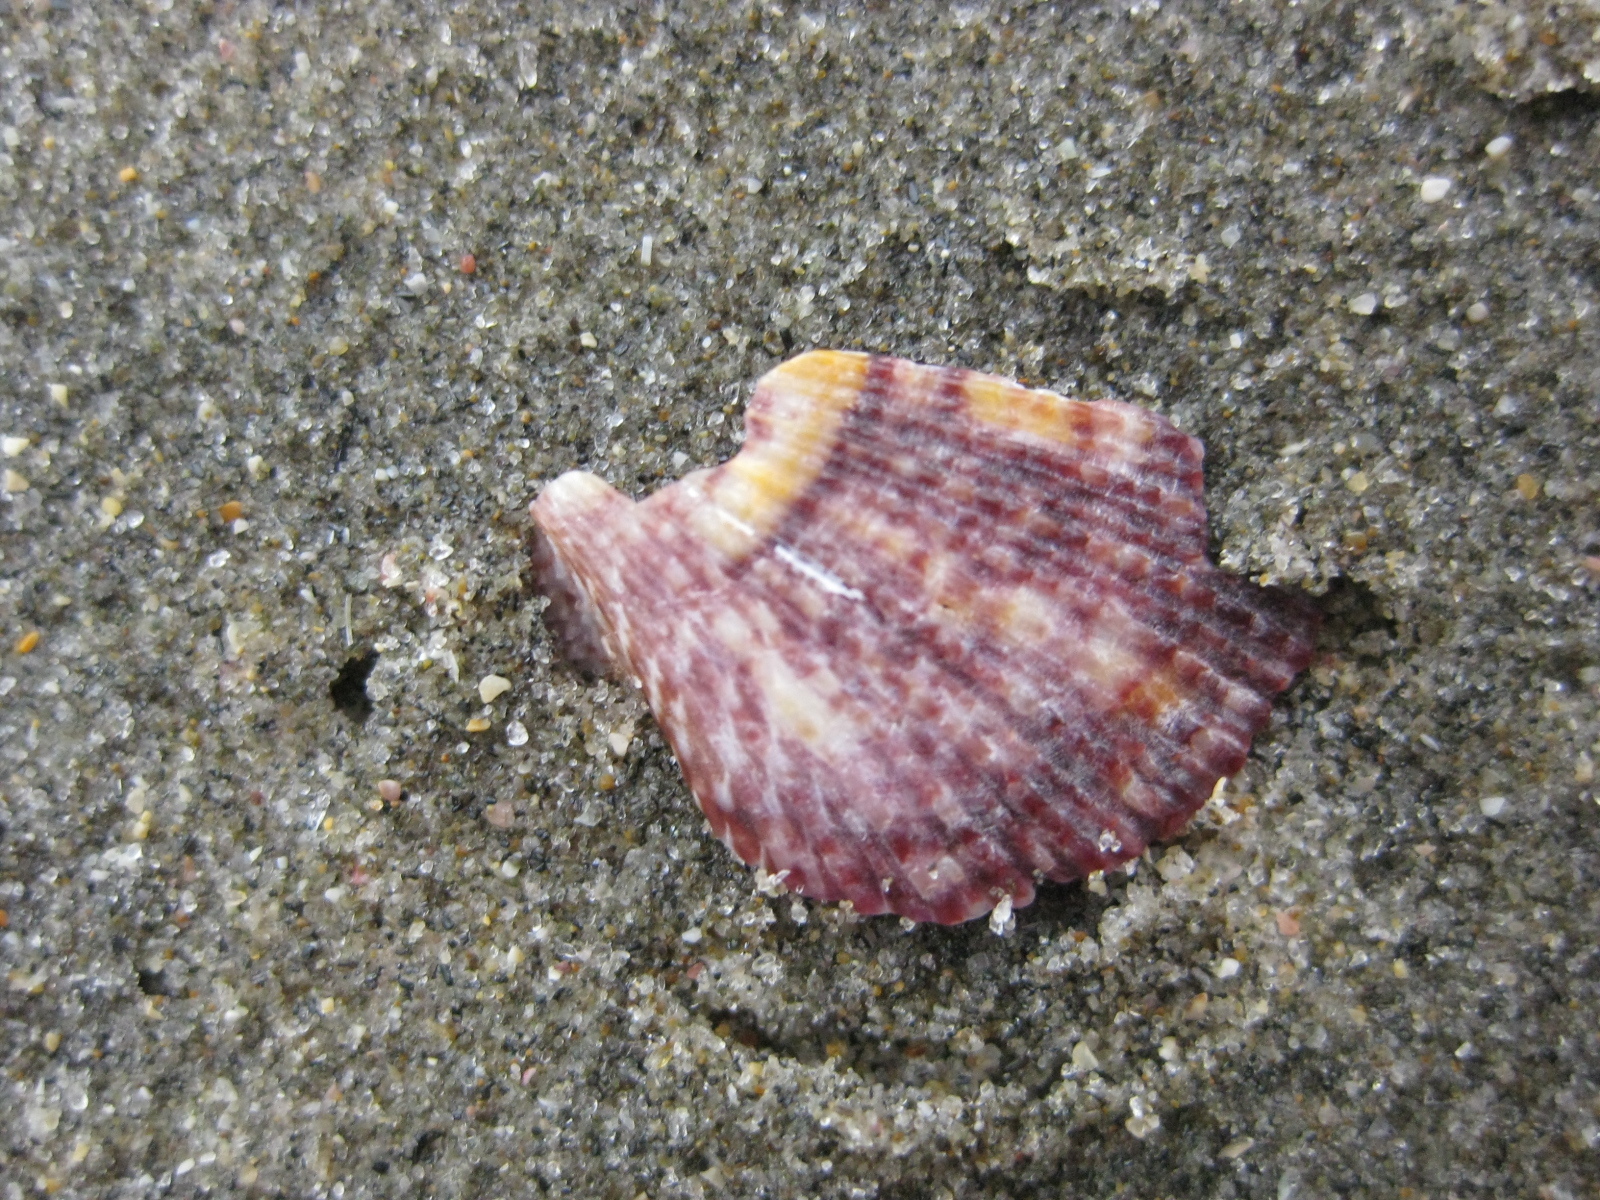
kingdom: Animalia
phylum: Mollusca
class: Bivalvia
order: Pectinida
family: Pectinidae
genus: Talochlamys
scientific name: Talochlamys zelandiae
